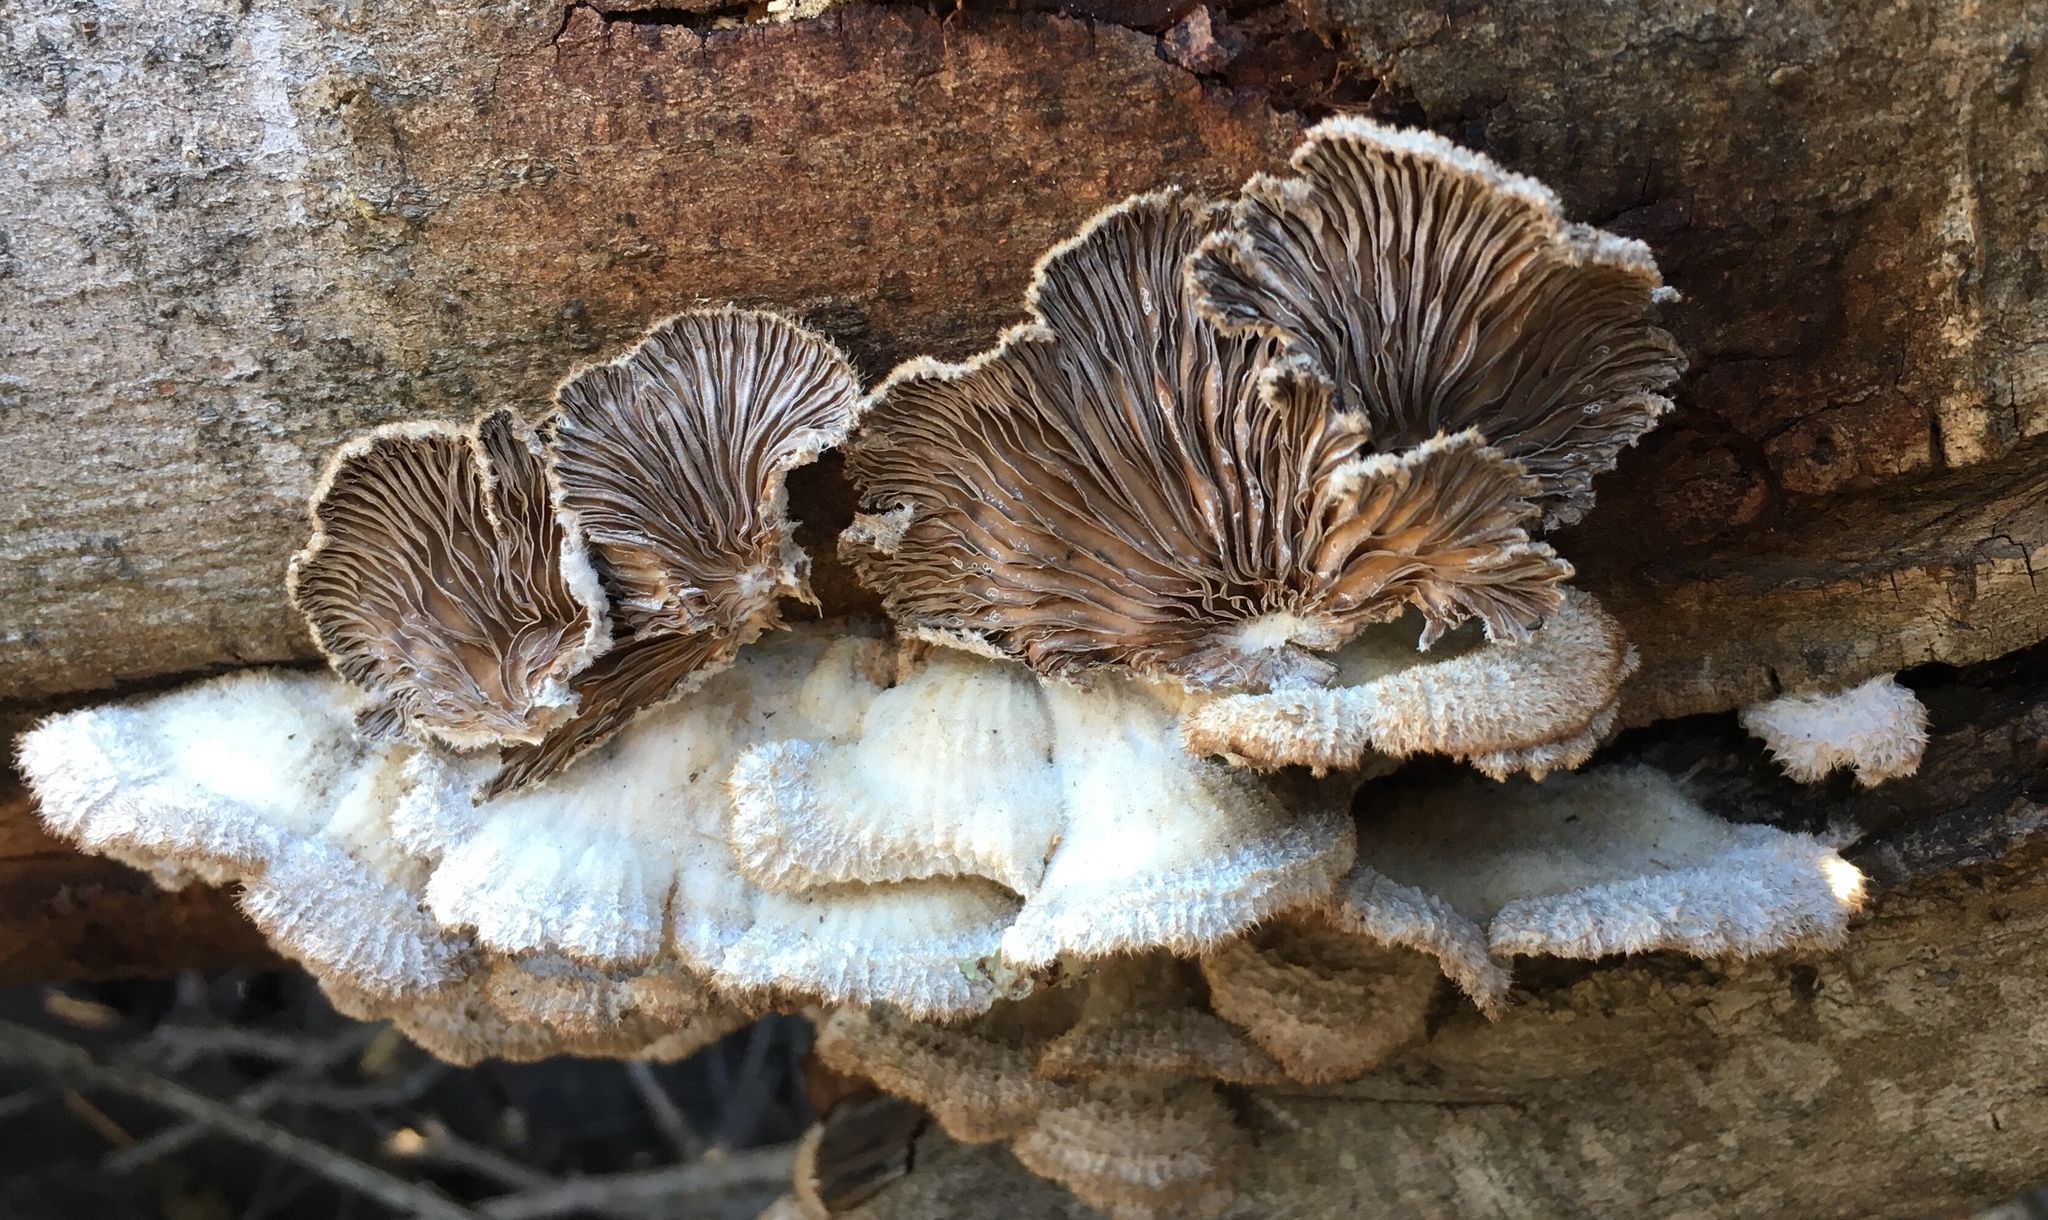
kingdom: Fungi
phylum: Basidiomycota
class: Agaricomycetes
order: Agaricales
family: Schizophyllaceae
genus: Schizophyllum
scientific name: Schizophyllum commune
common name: Common porecrust
